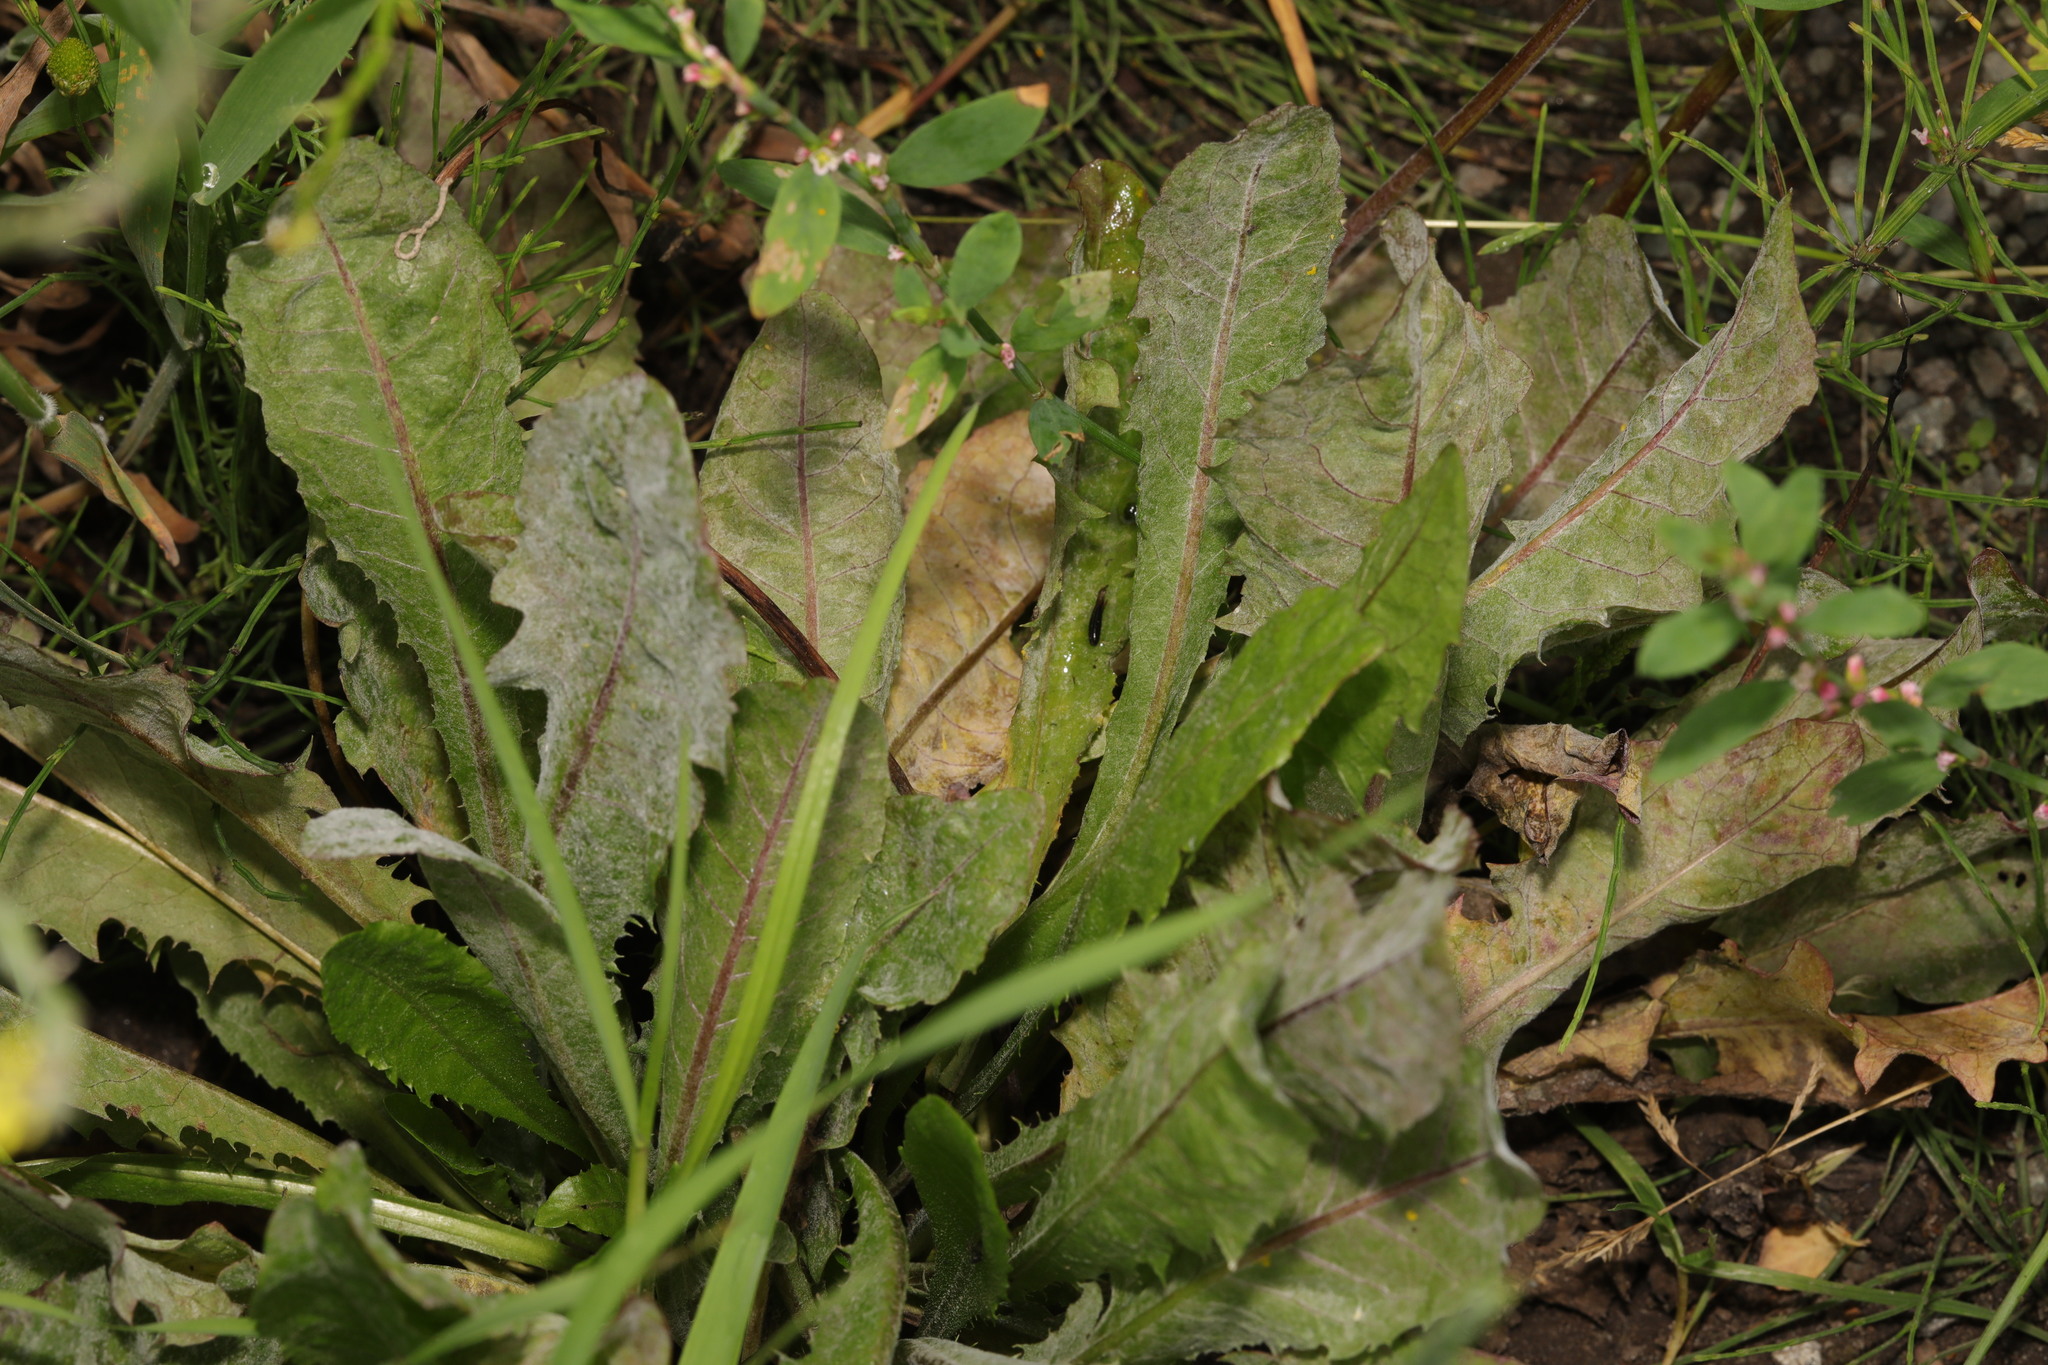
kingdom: Plantae
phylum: Tracheophyta
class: Magnoliopsida
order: Asterales
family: Asteraceae
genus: Taraxacum
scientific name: Taraxacum officinale
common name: Common dandelion
